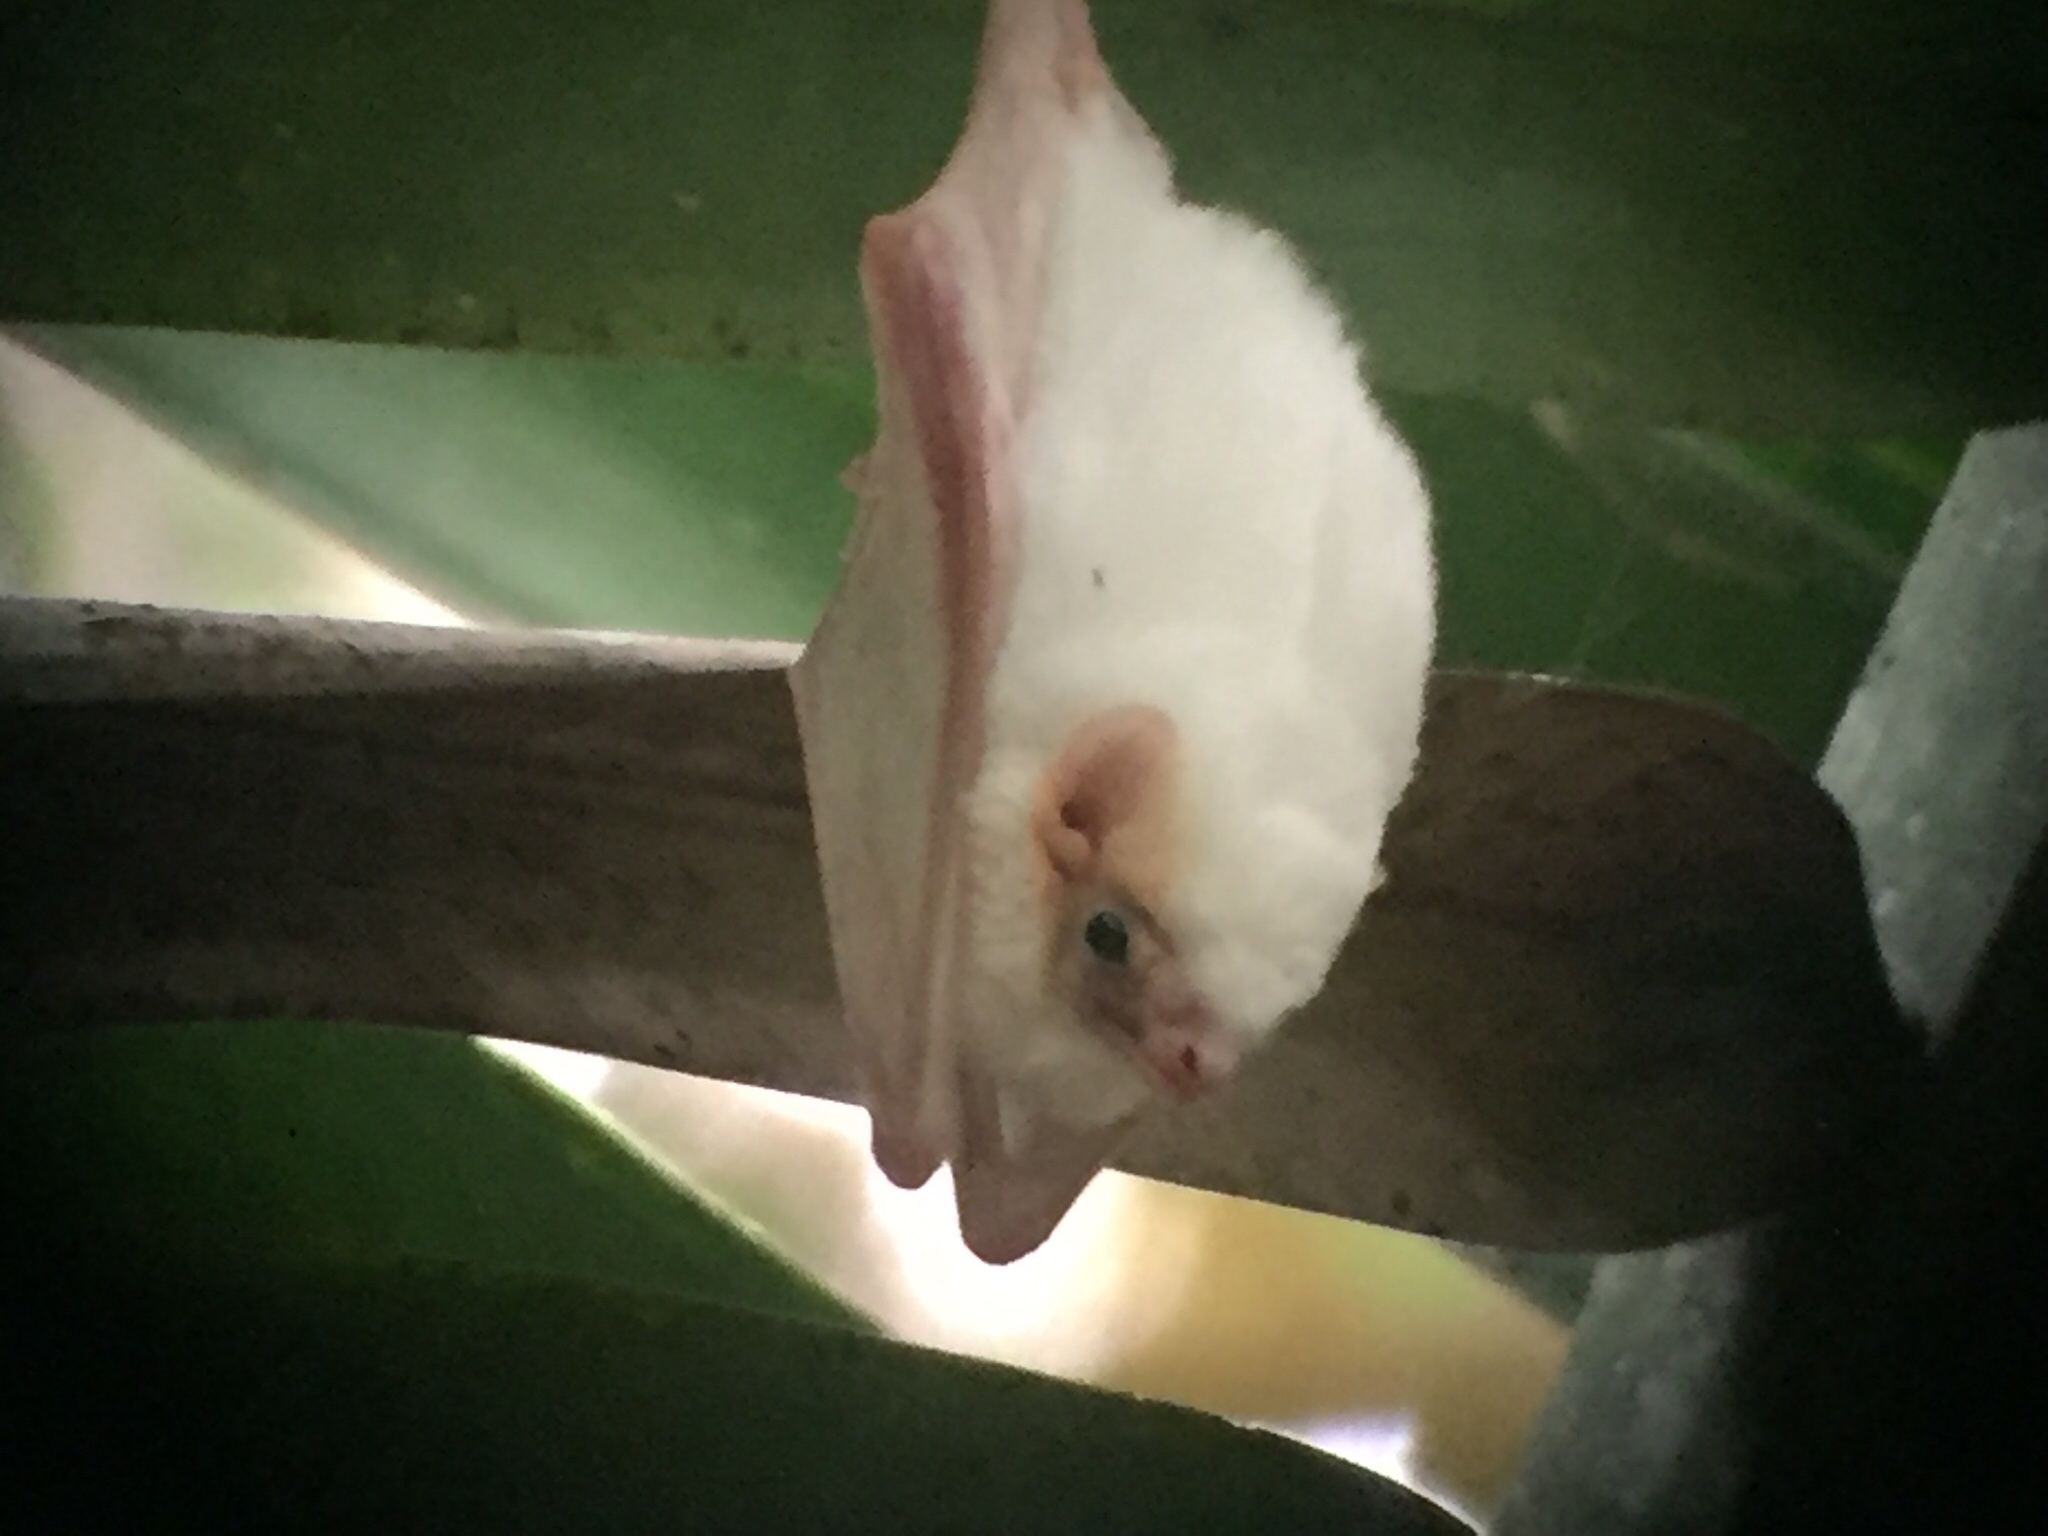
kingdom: Animalia
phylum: Chordata
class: Mammalia
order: Chiroptera
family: Emballonuridae
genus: Diclidurus
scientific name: Diclidurus albus
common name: Northern ghost bat
